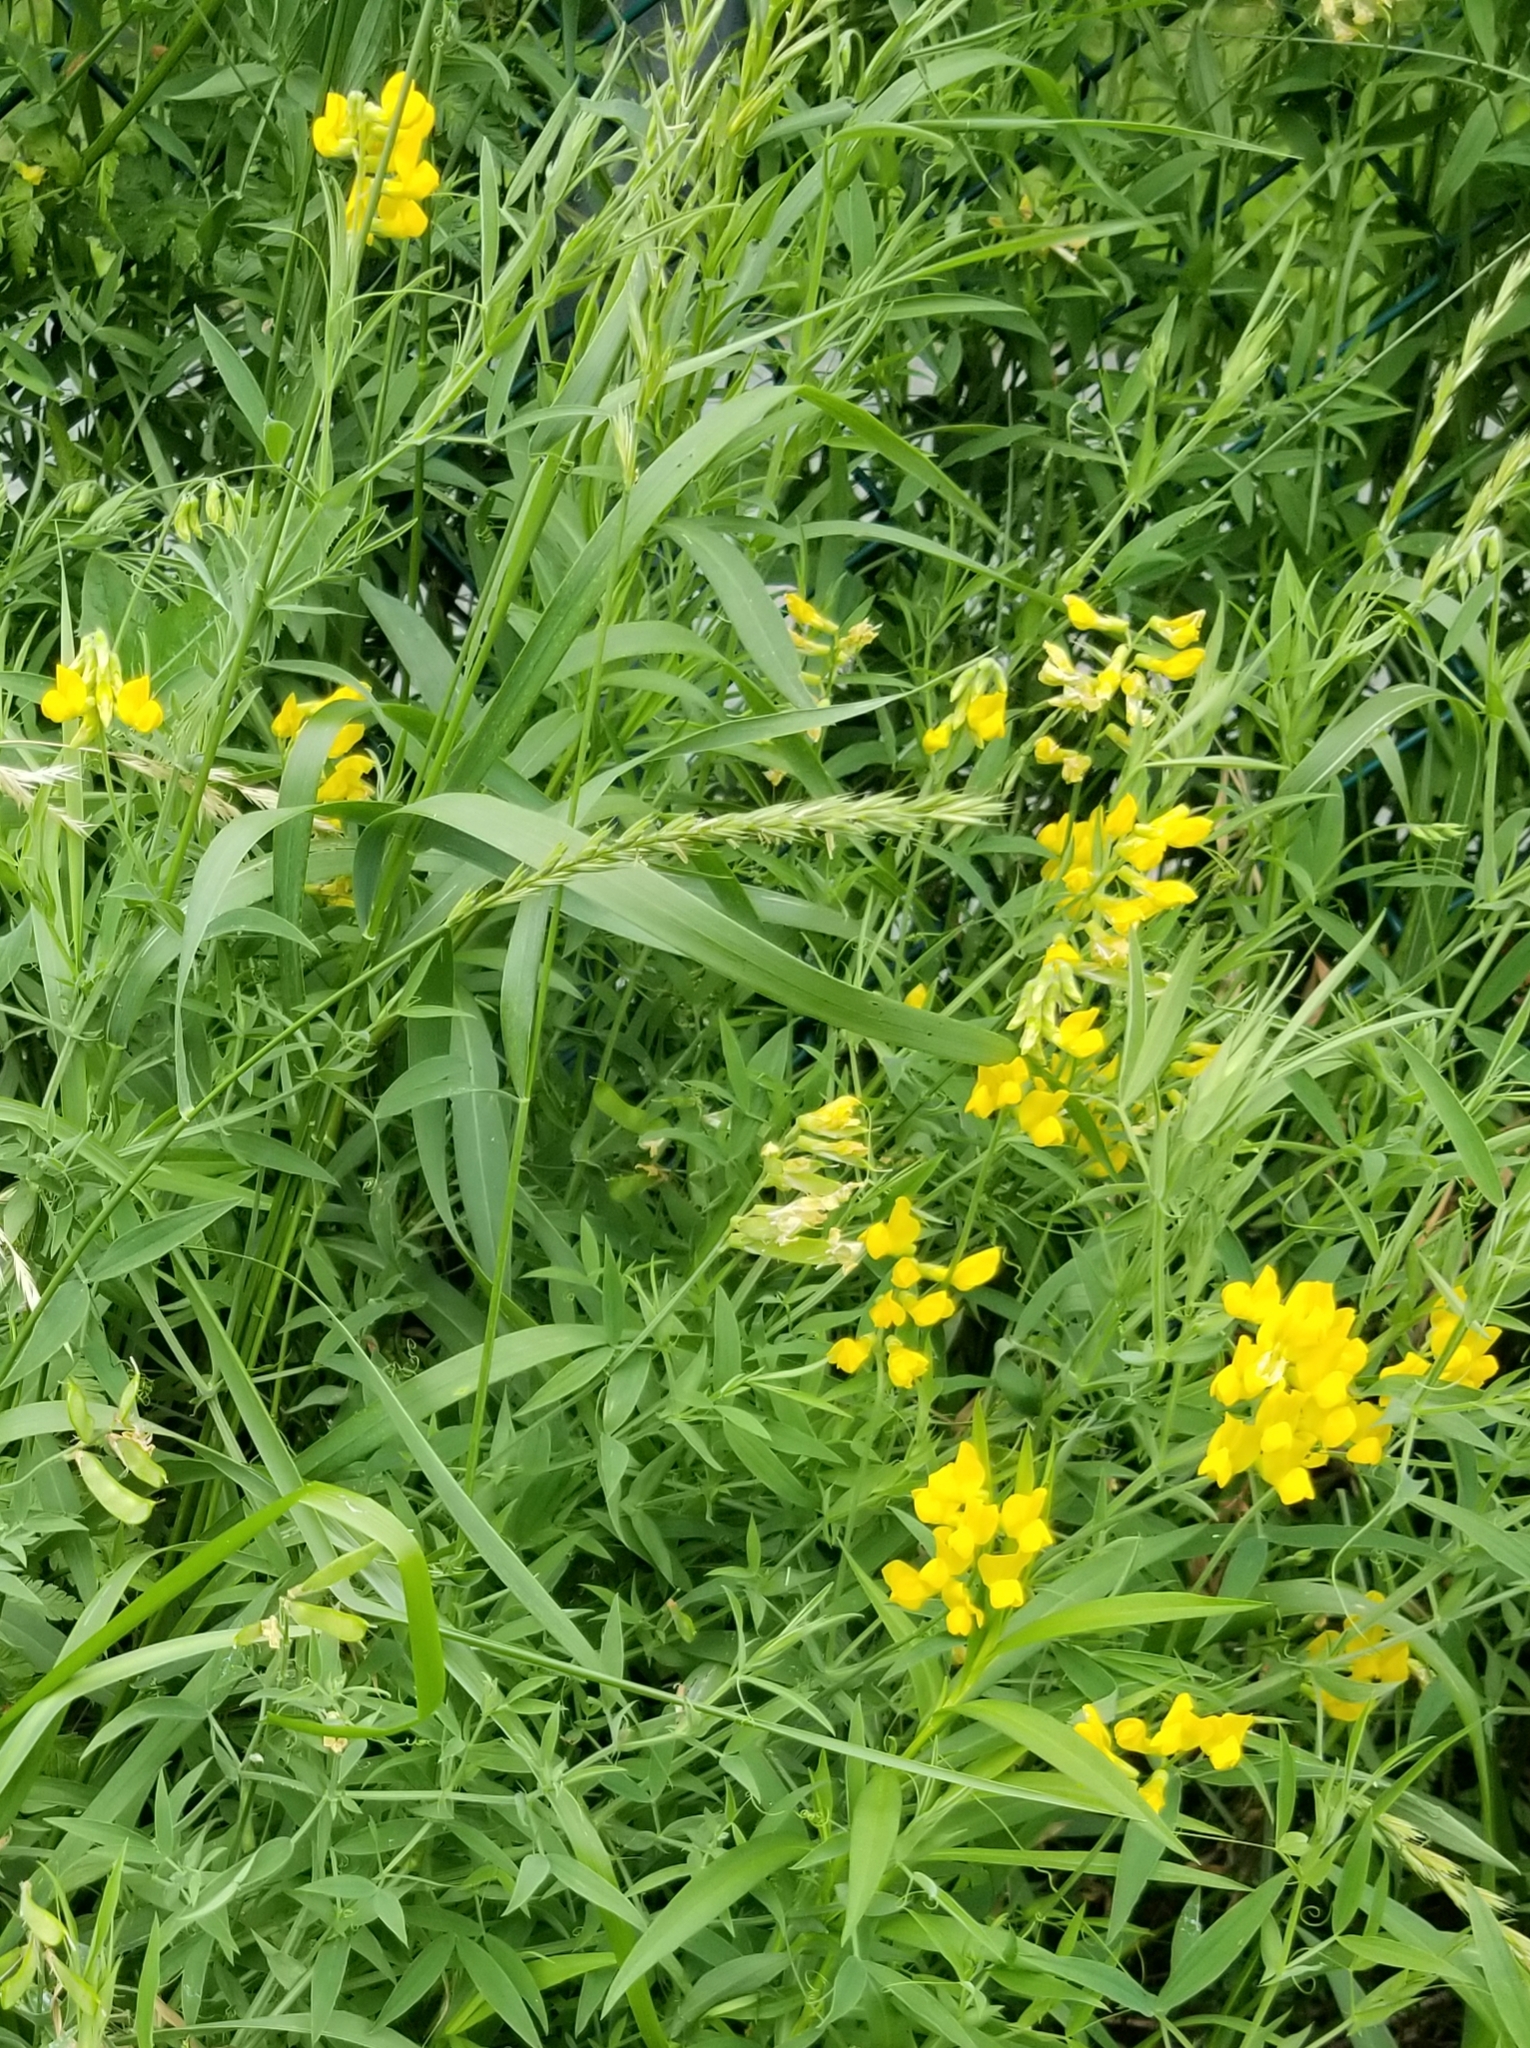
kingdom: Plantae
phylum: Tracheophyta
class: Magnoliopsida
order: Fabales
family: Fabaceae
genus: Lathyrus
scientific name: Lathyrus pratensis
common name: Meadow vetchling
